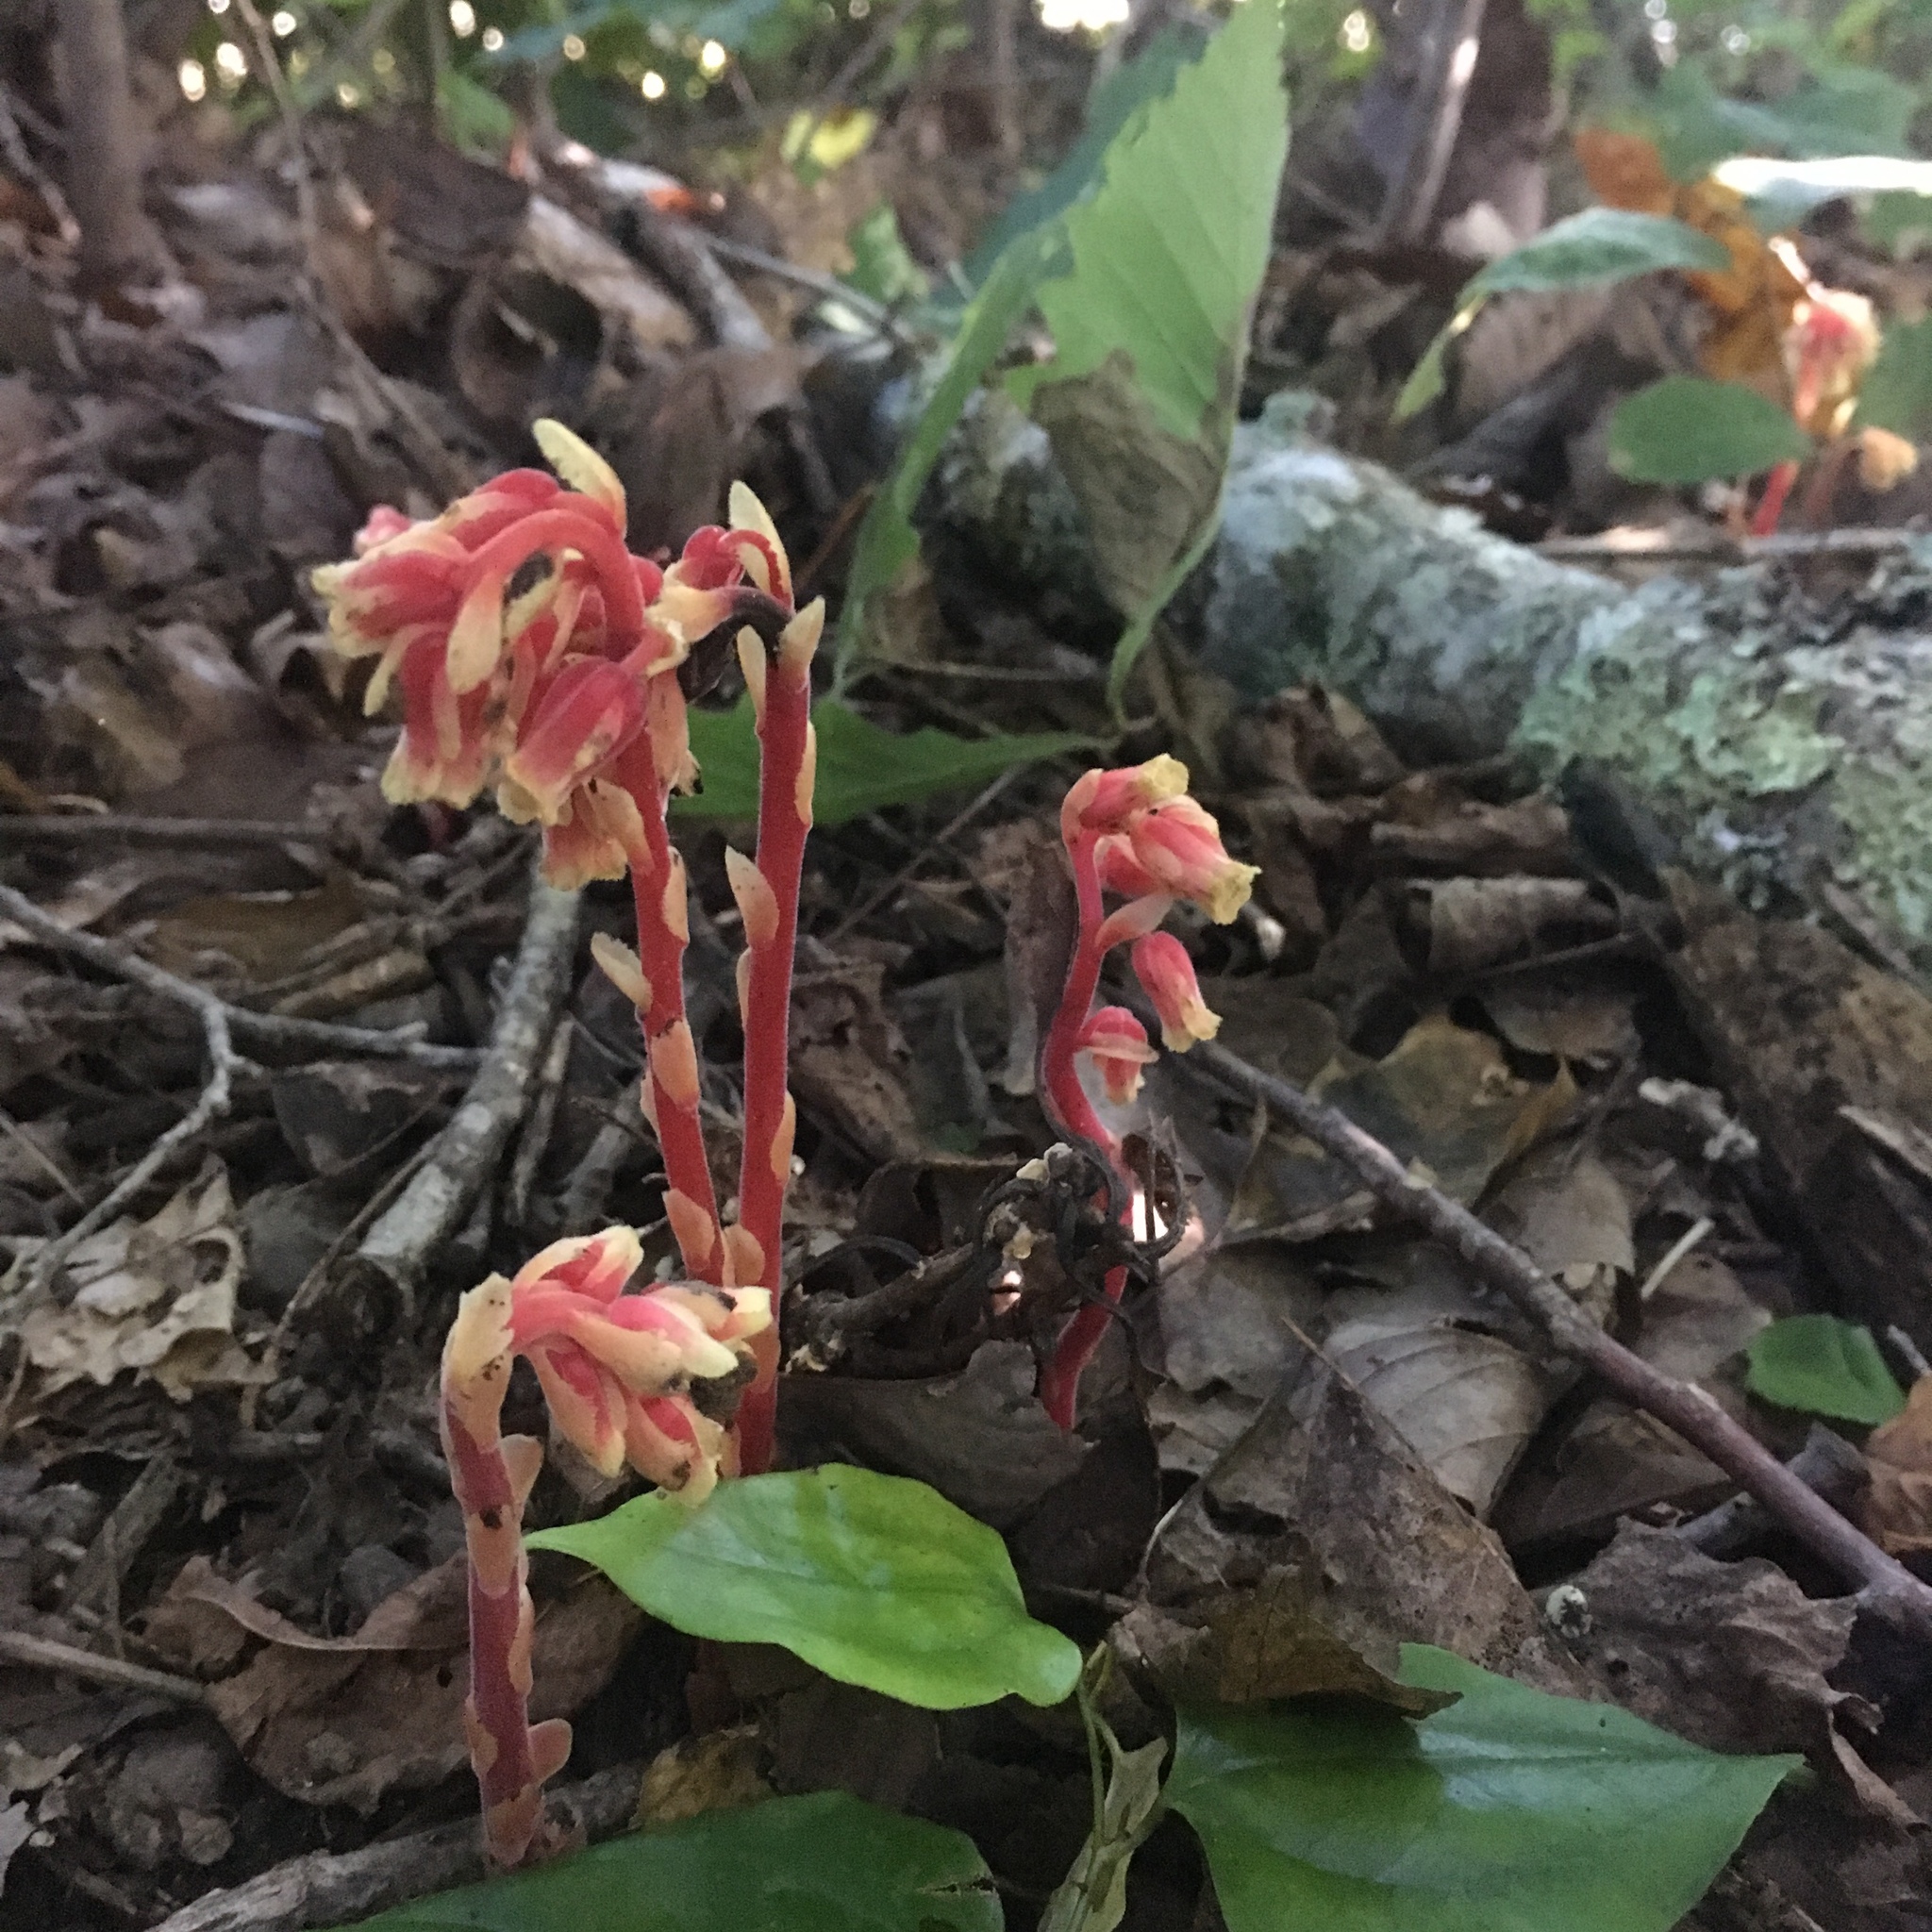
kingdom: Plantae
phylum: Tracheophyta
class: Magnoliopsida
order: Ericales
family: Ericaceae
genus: Hypopitys
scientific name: Hypopitys monotropa
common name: Yellow bird's-nest
